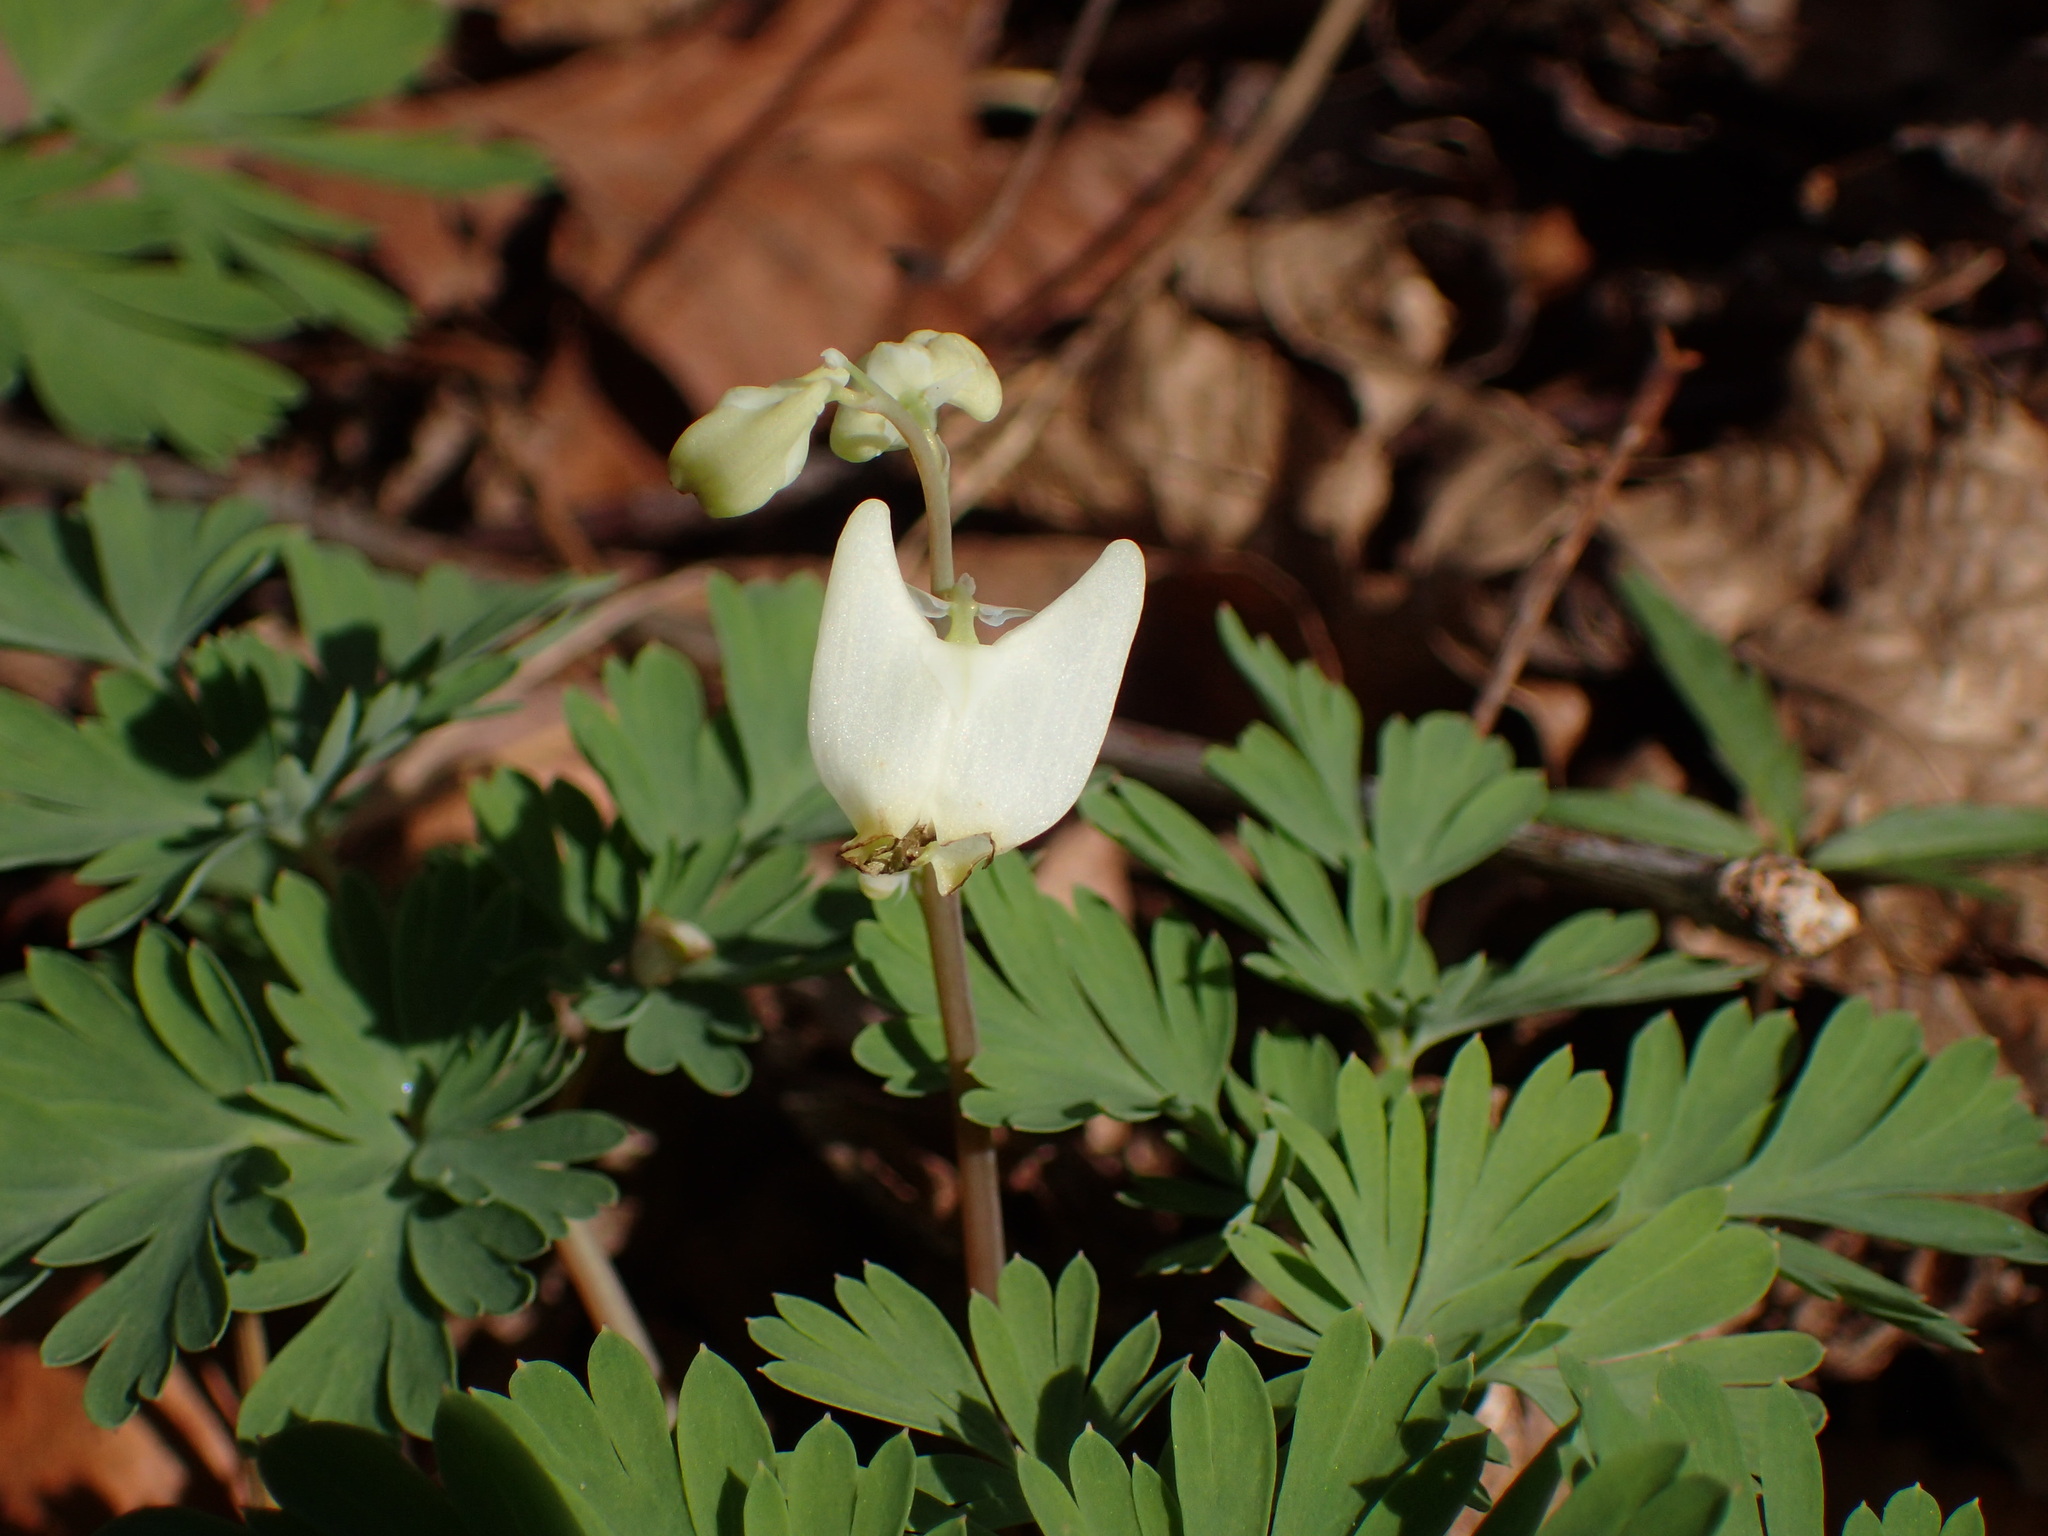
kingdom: Plantae
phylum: Tracheophyta
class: Magnoliopsida
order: Ranunculales
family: Papaveraceae
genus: Dicentra
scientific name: Dicentra cucullaria
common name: Dutchman's breeches
